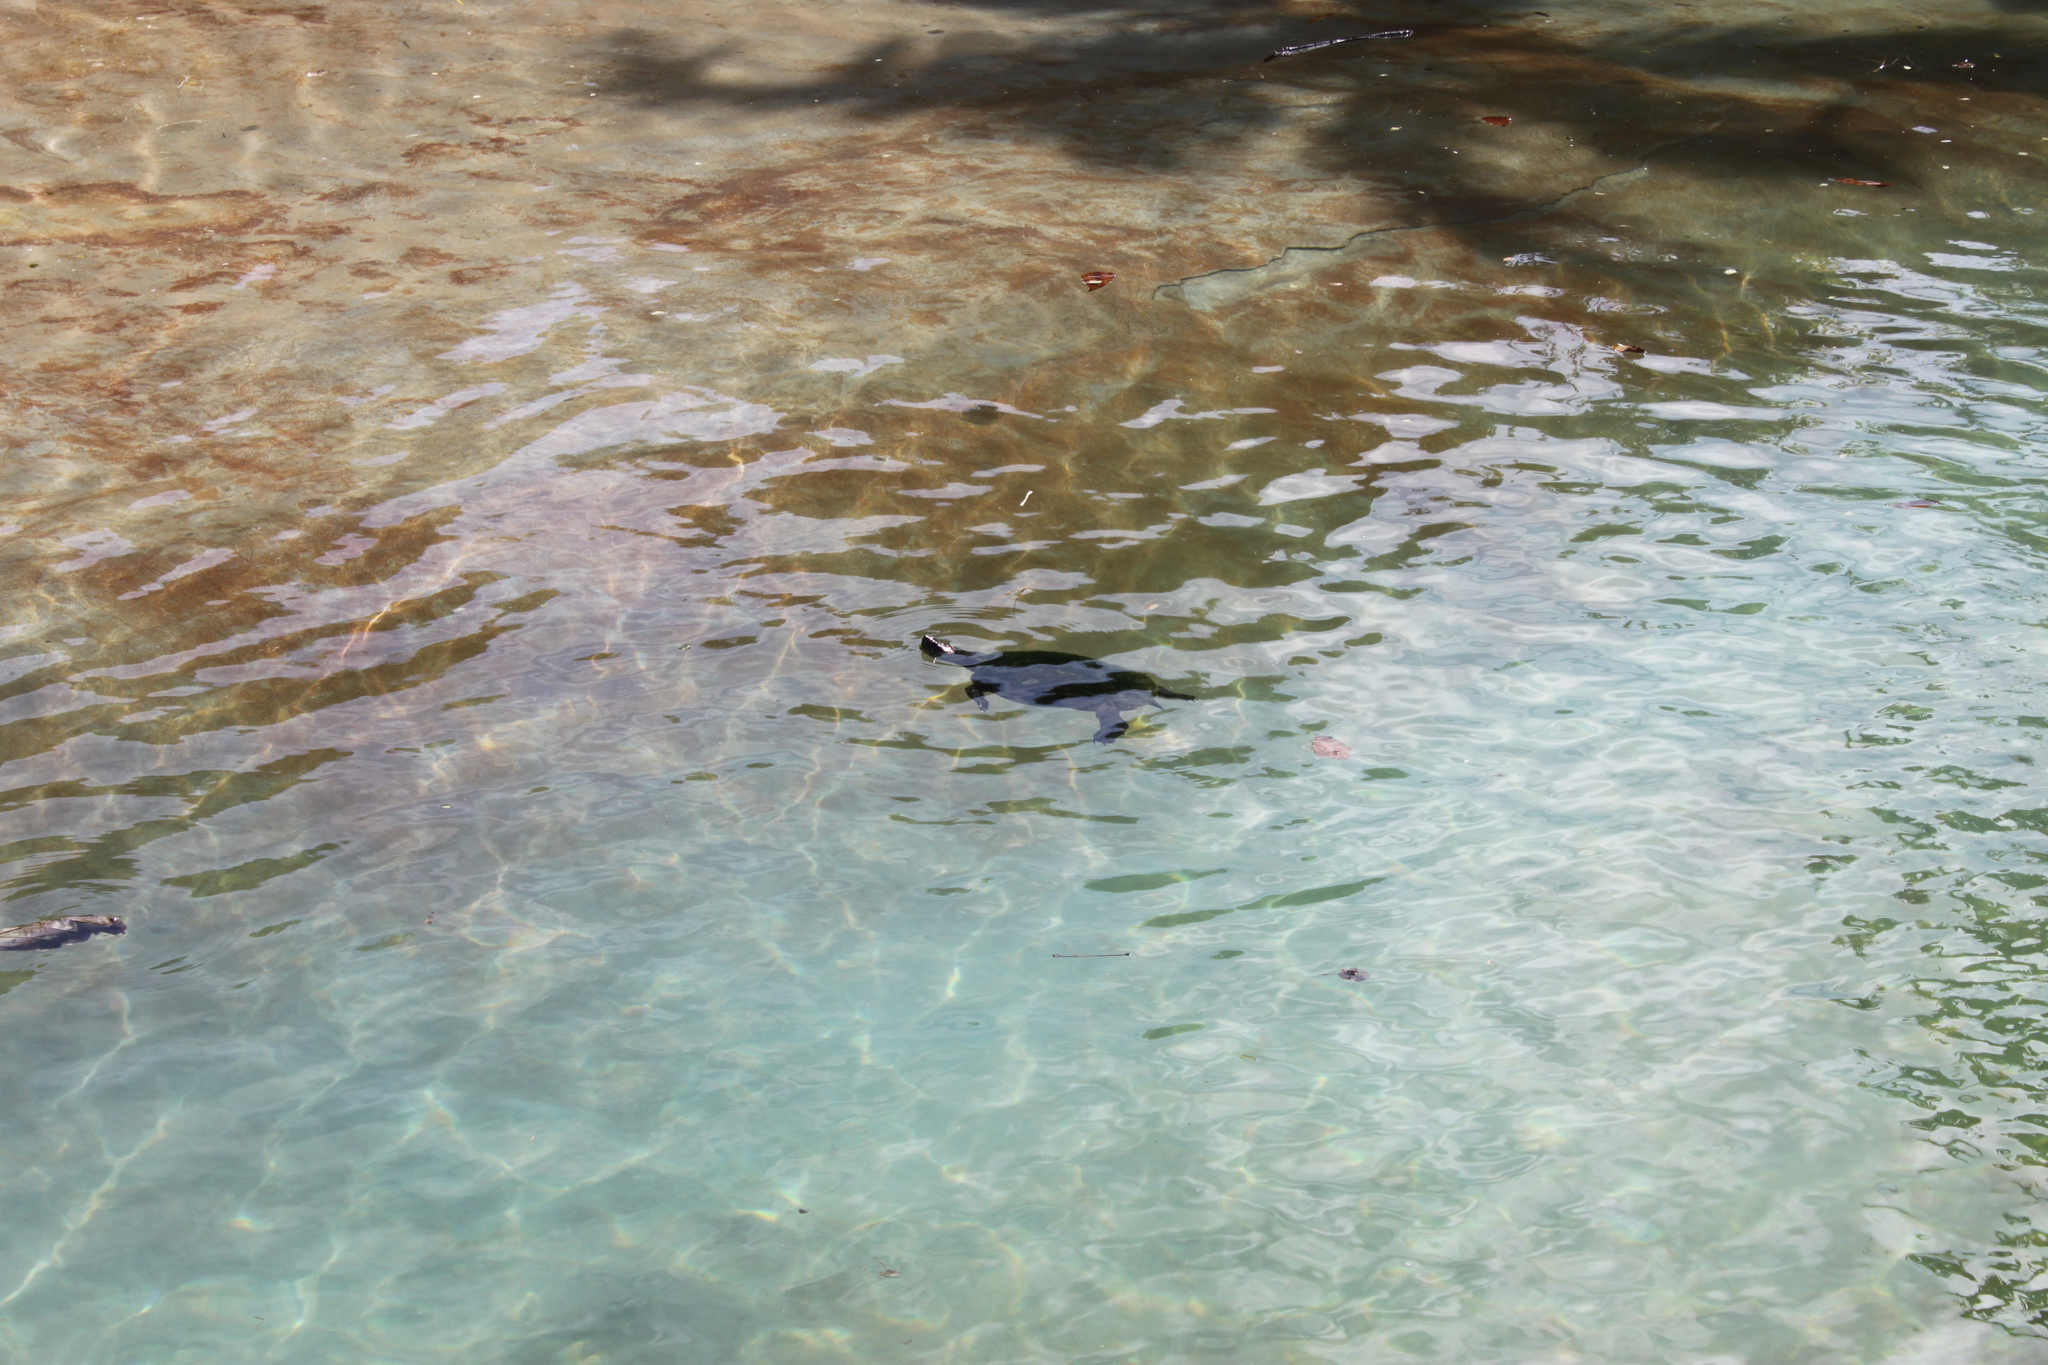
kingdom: Animalia
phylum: Chordata
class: Testudines
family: Emydidae
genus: Trachemys
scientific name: Trachemys scripta
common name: Slider
